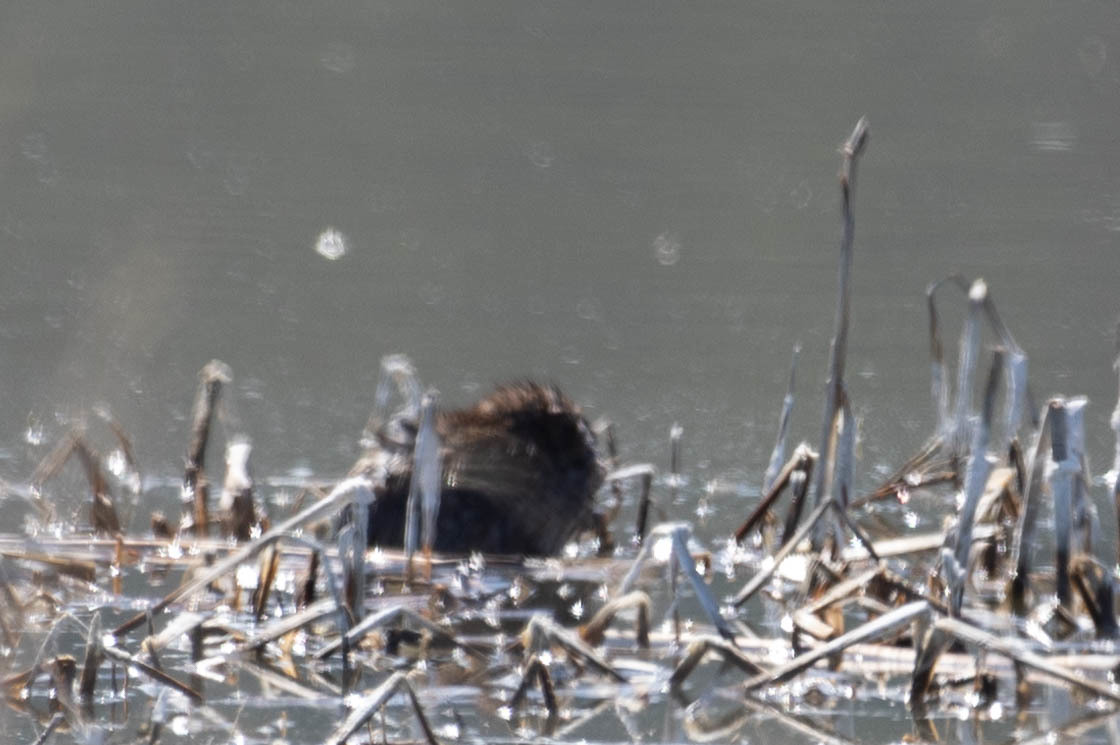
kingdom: Animalia
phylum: Chordata
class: Mammalia
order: Rodentia
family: Cricetidae
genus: Ondatra
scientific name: Ondatra zibethicus
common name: Muskrat
